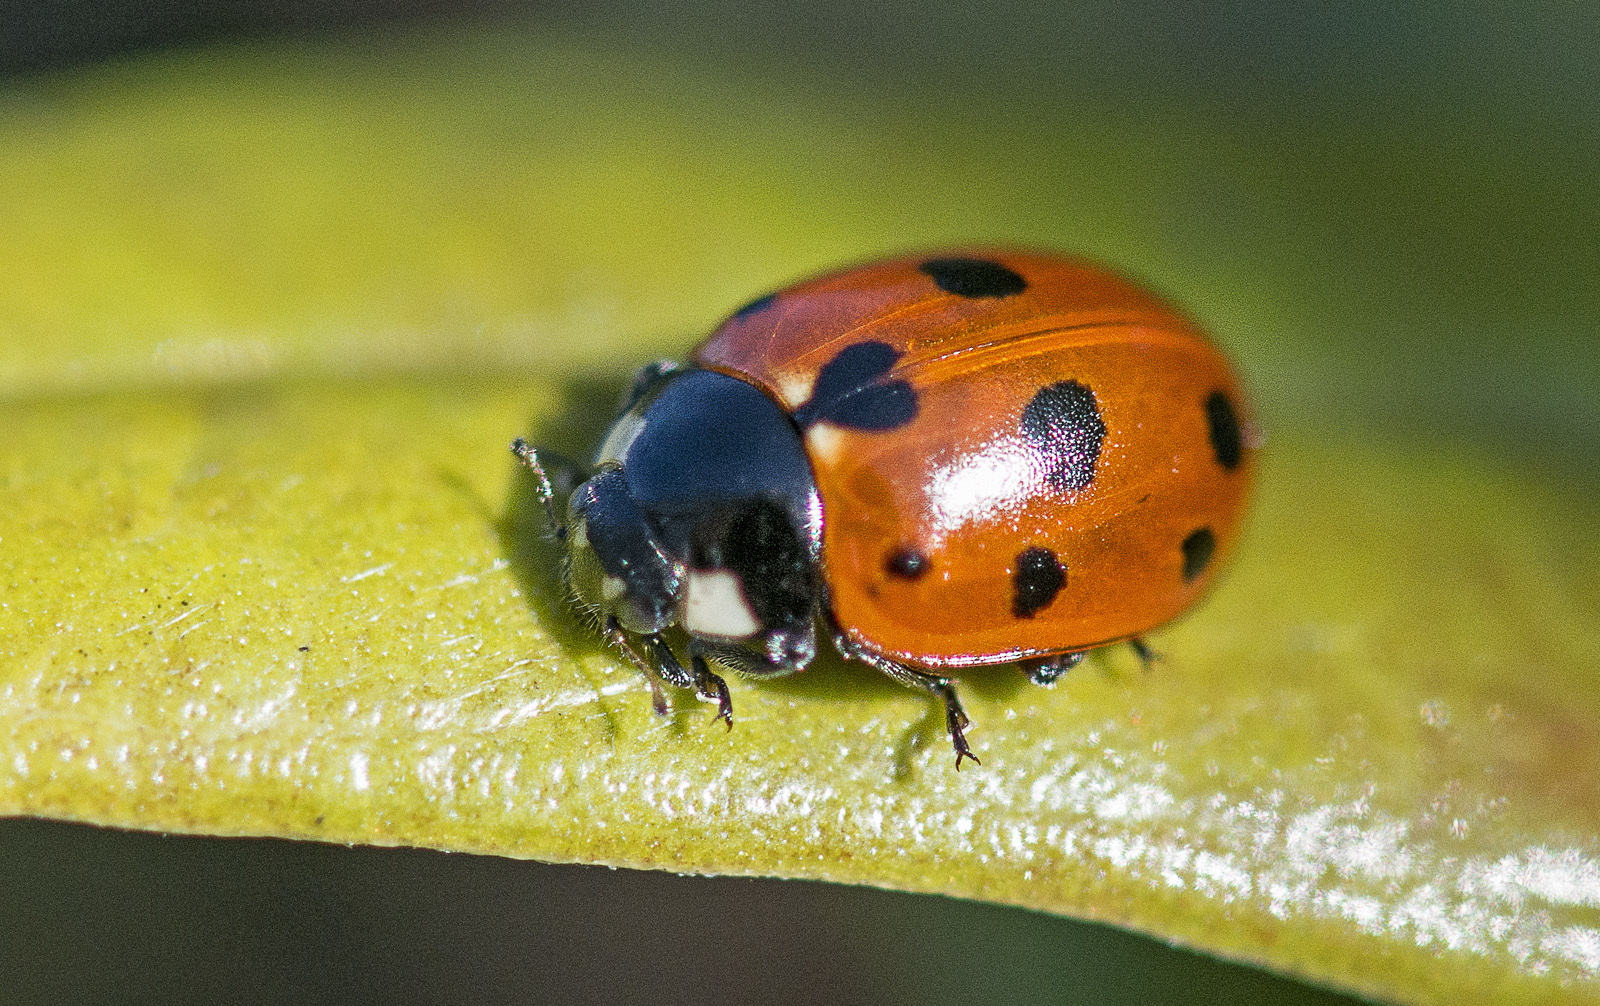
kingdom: Animalia
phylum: Arthropoda
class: Insecta
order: Coleoptera
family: Coccinellidae
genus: Coccinella
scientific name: Coccinella undecimpunctata
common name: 11-spot ladybird
